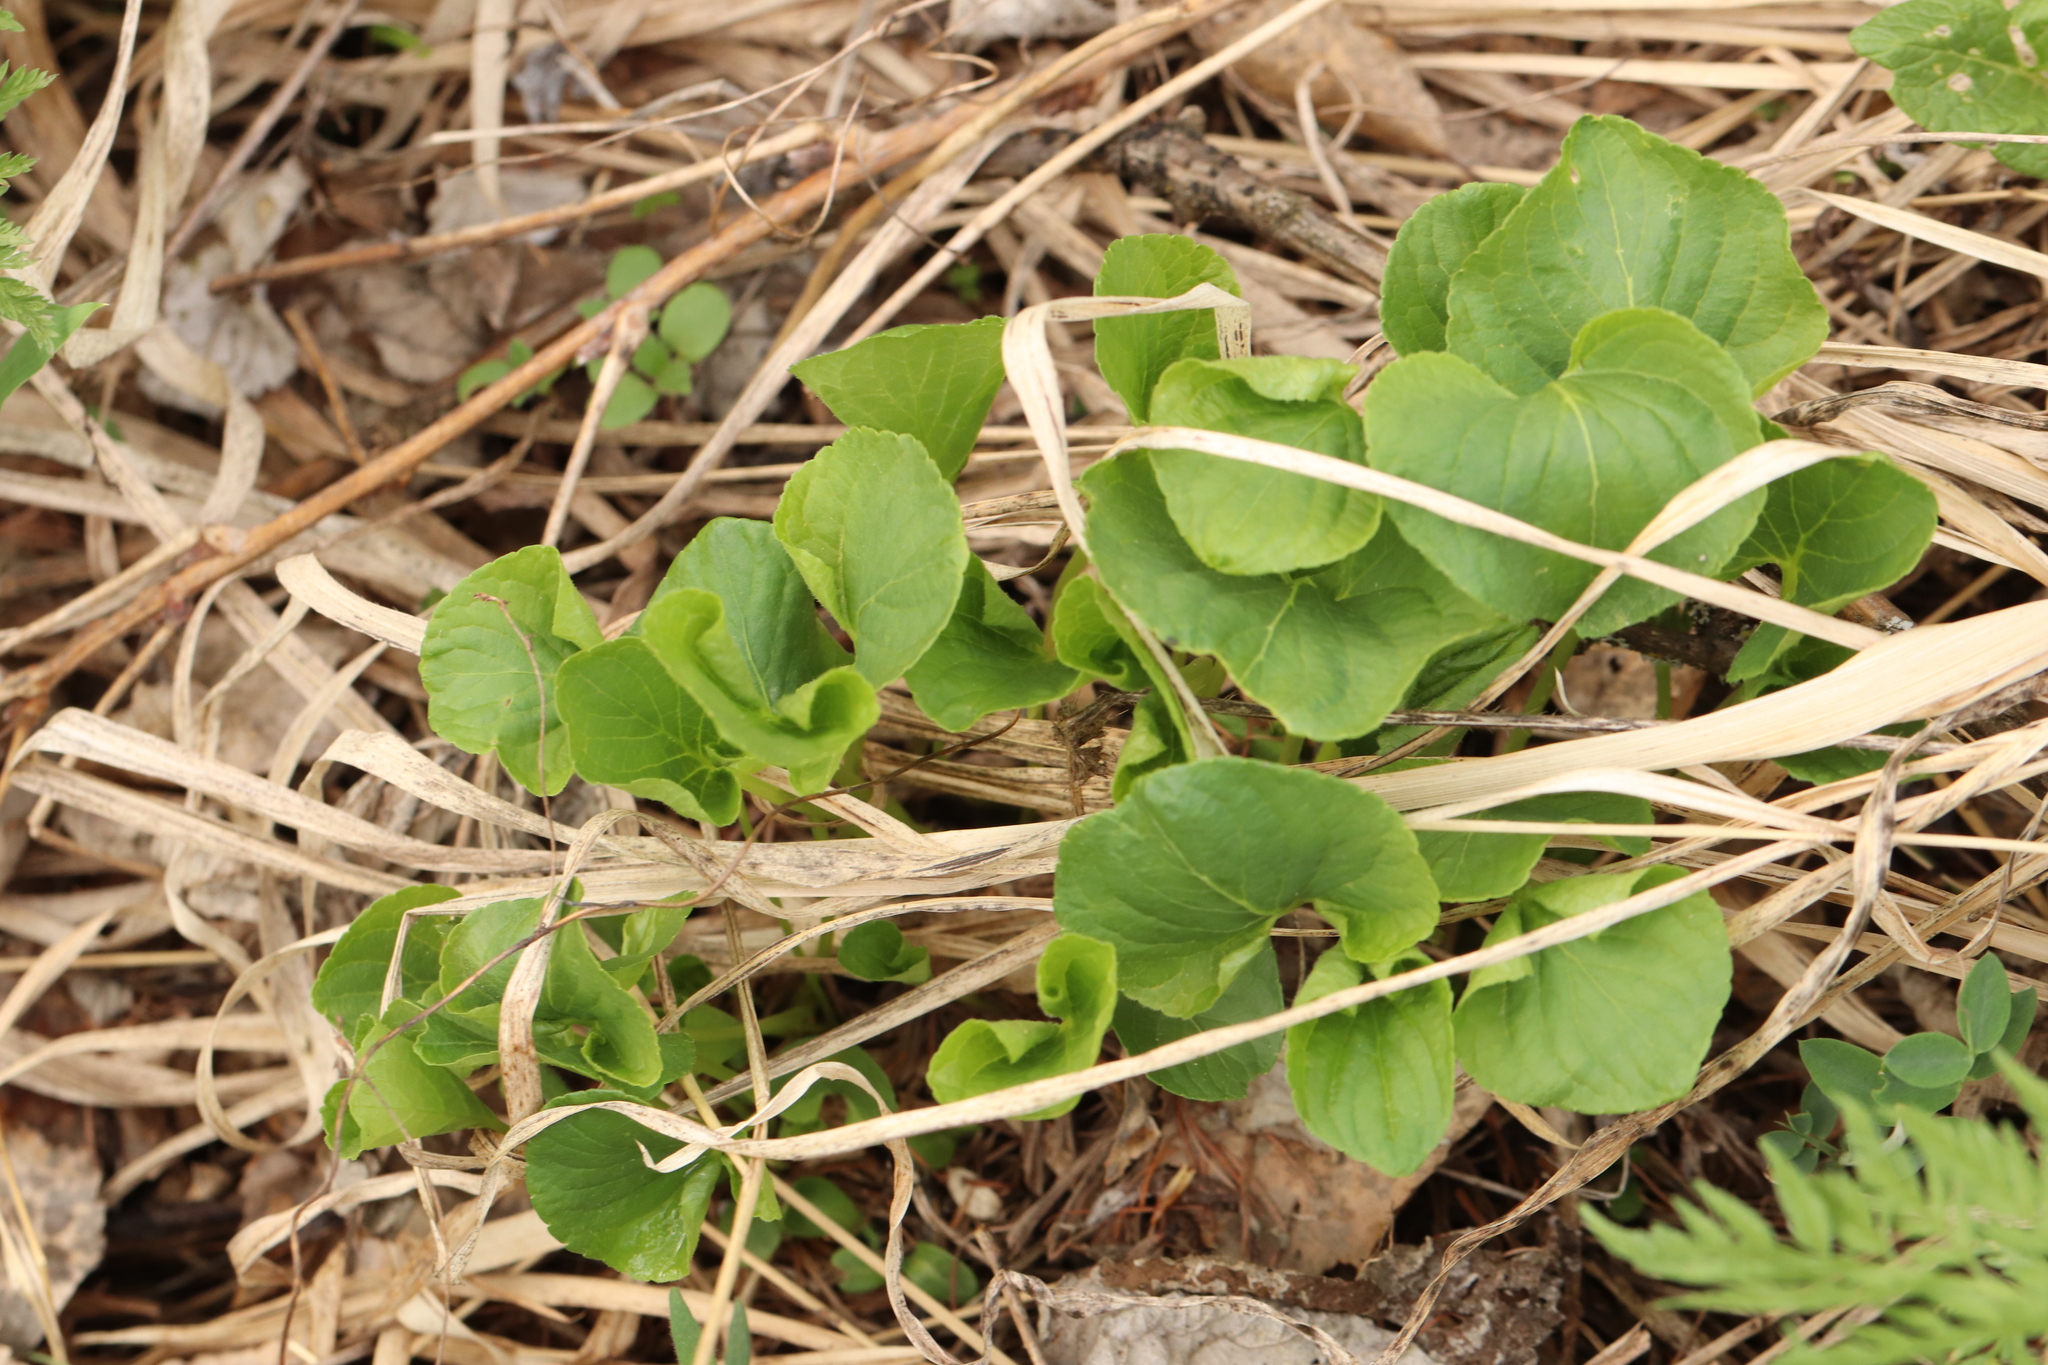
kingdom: Plantae
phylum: Tracheophyta
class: Magnoliopsida
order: Malpighiales
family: Violaceae
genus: Viola
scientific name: Viola mirabilis
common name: Wonder violet
